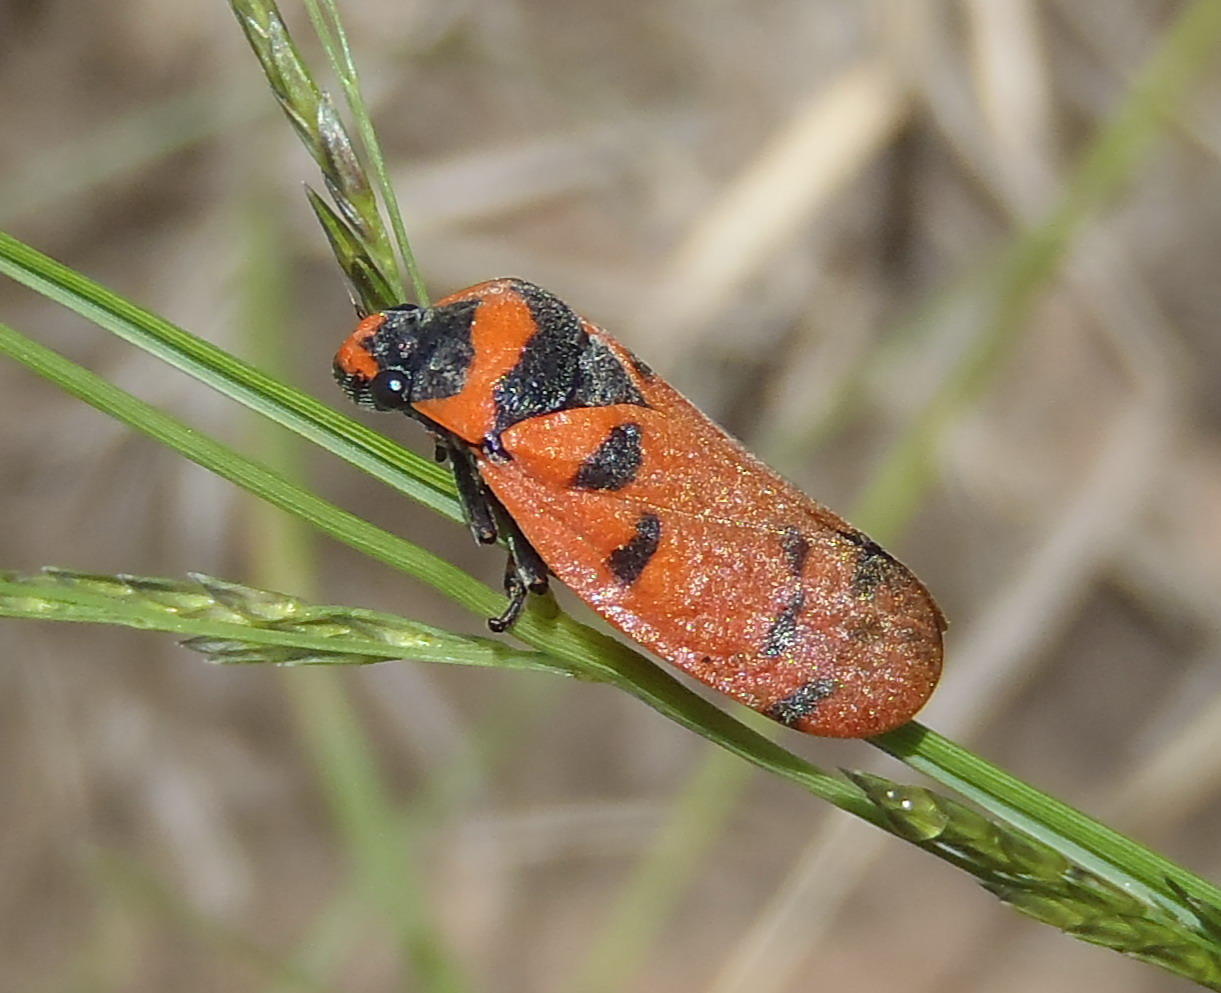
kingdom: Animalia
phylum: Arthropoda
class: Insecta
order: Hemiptera
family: Cercopidae
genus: Locris
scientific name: Locris arithmetica
